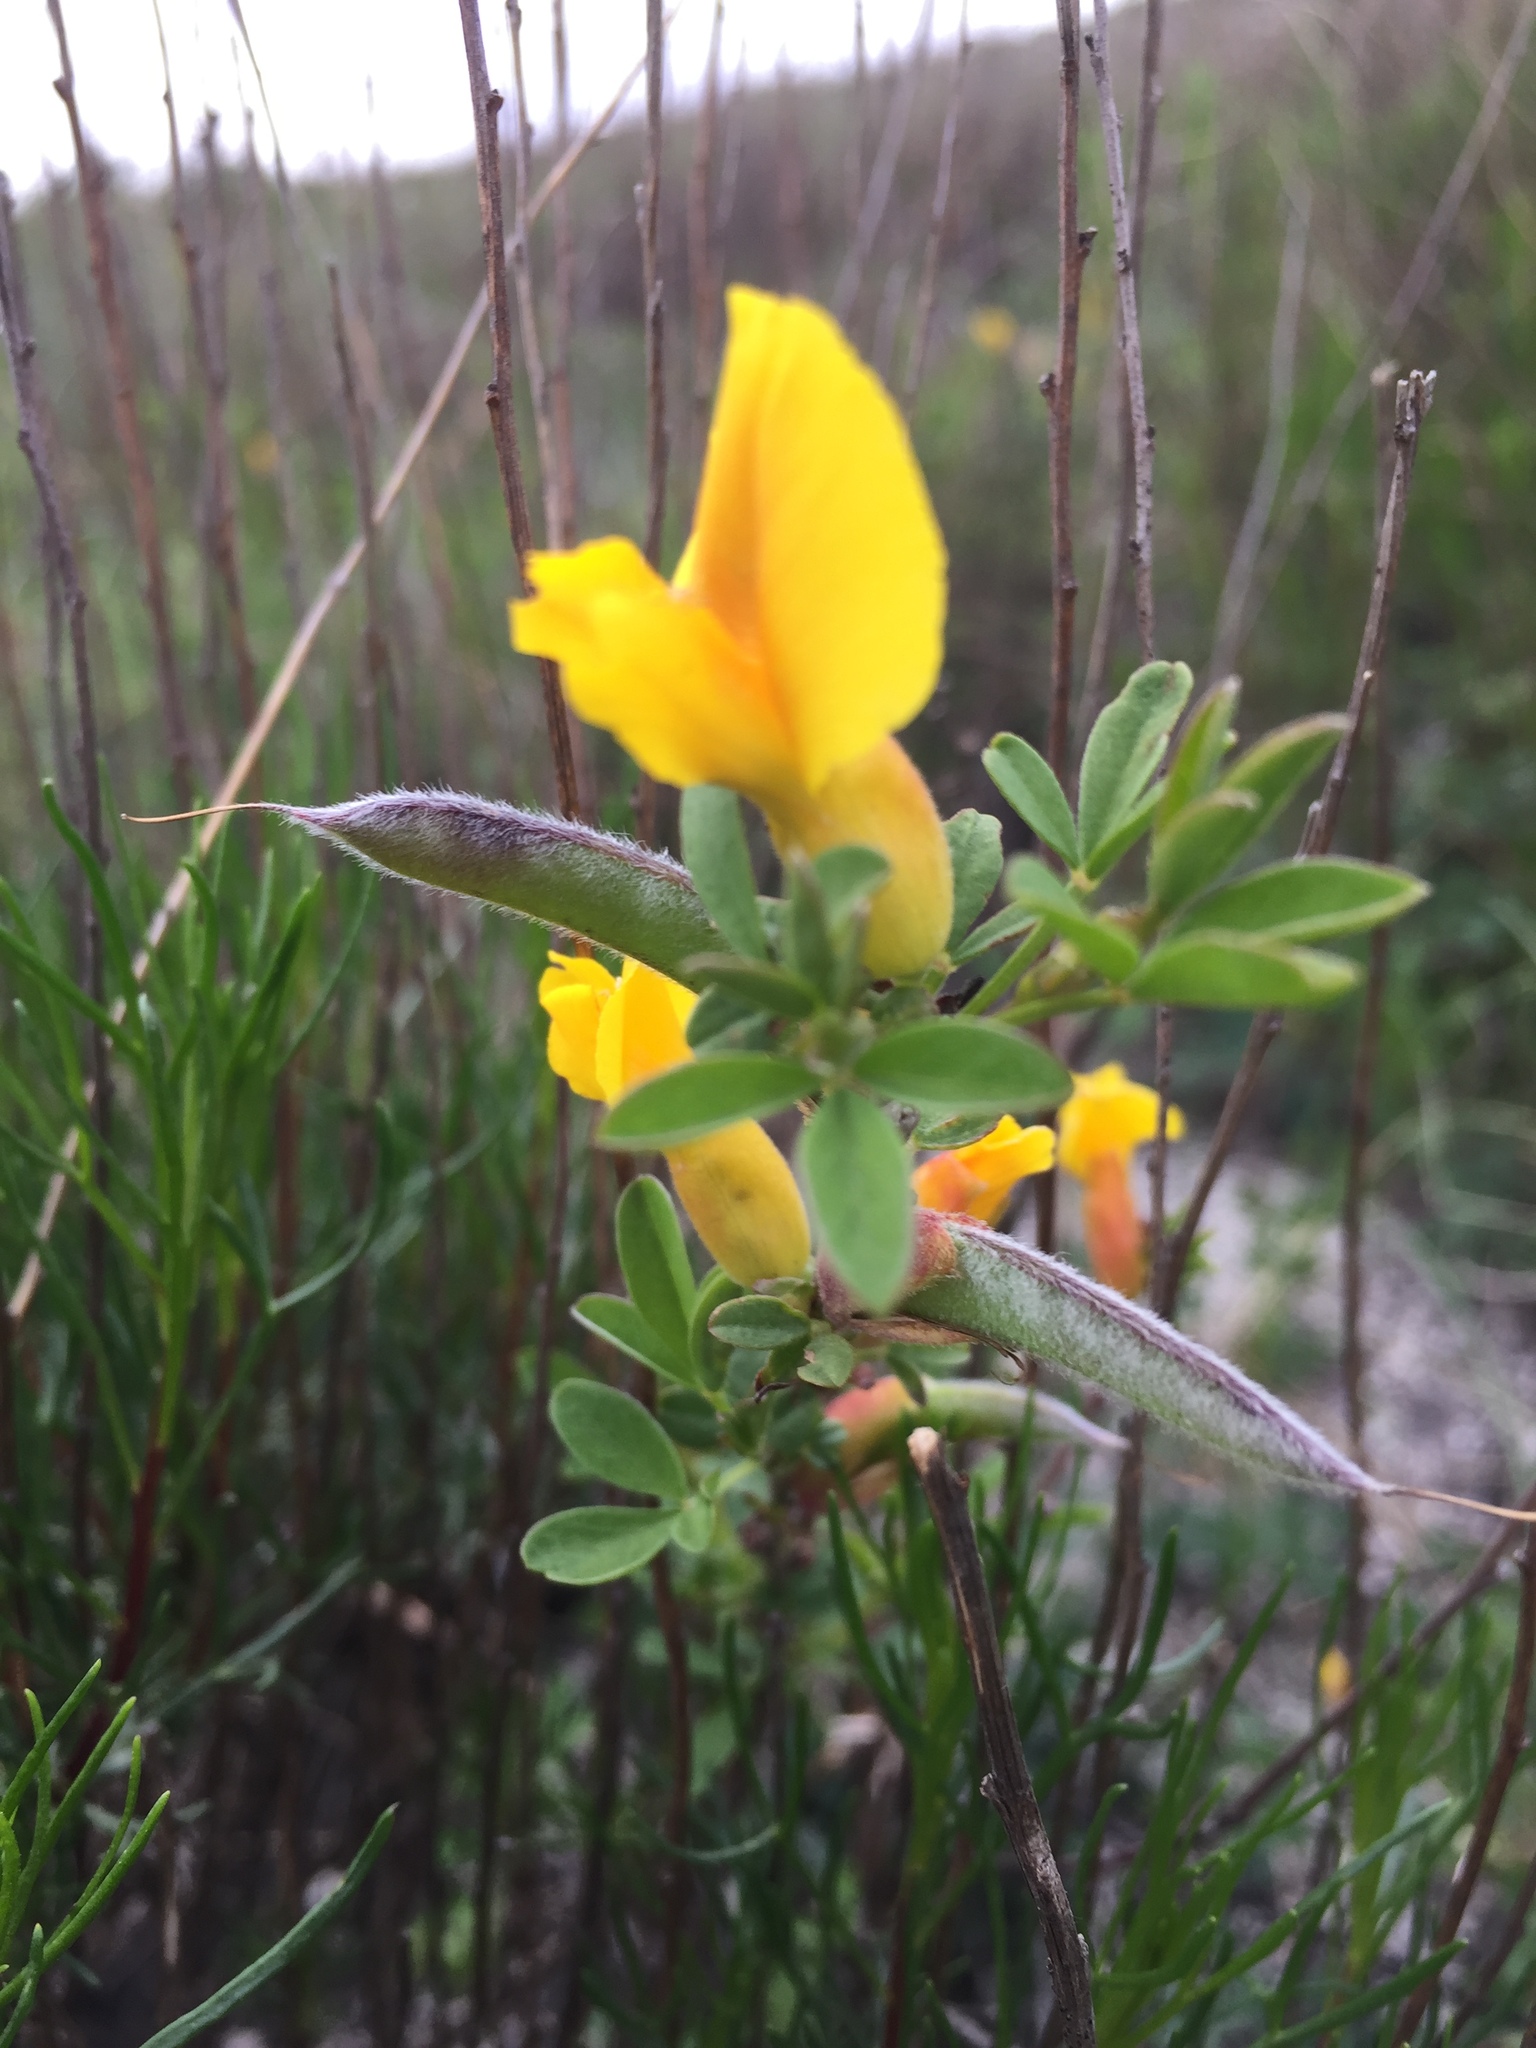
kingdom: Plantae
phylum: Tracheophyta
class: Magnoliopsida
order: Fabales
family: Fabaceae
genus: Chamaecytisus
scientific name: Chamaecytisus ruthenicus
